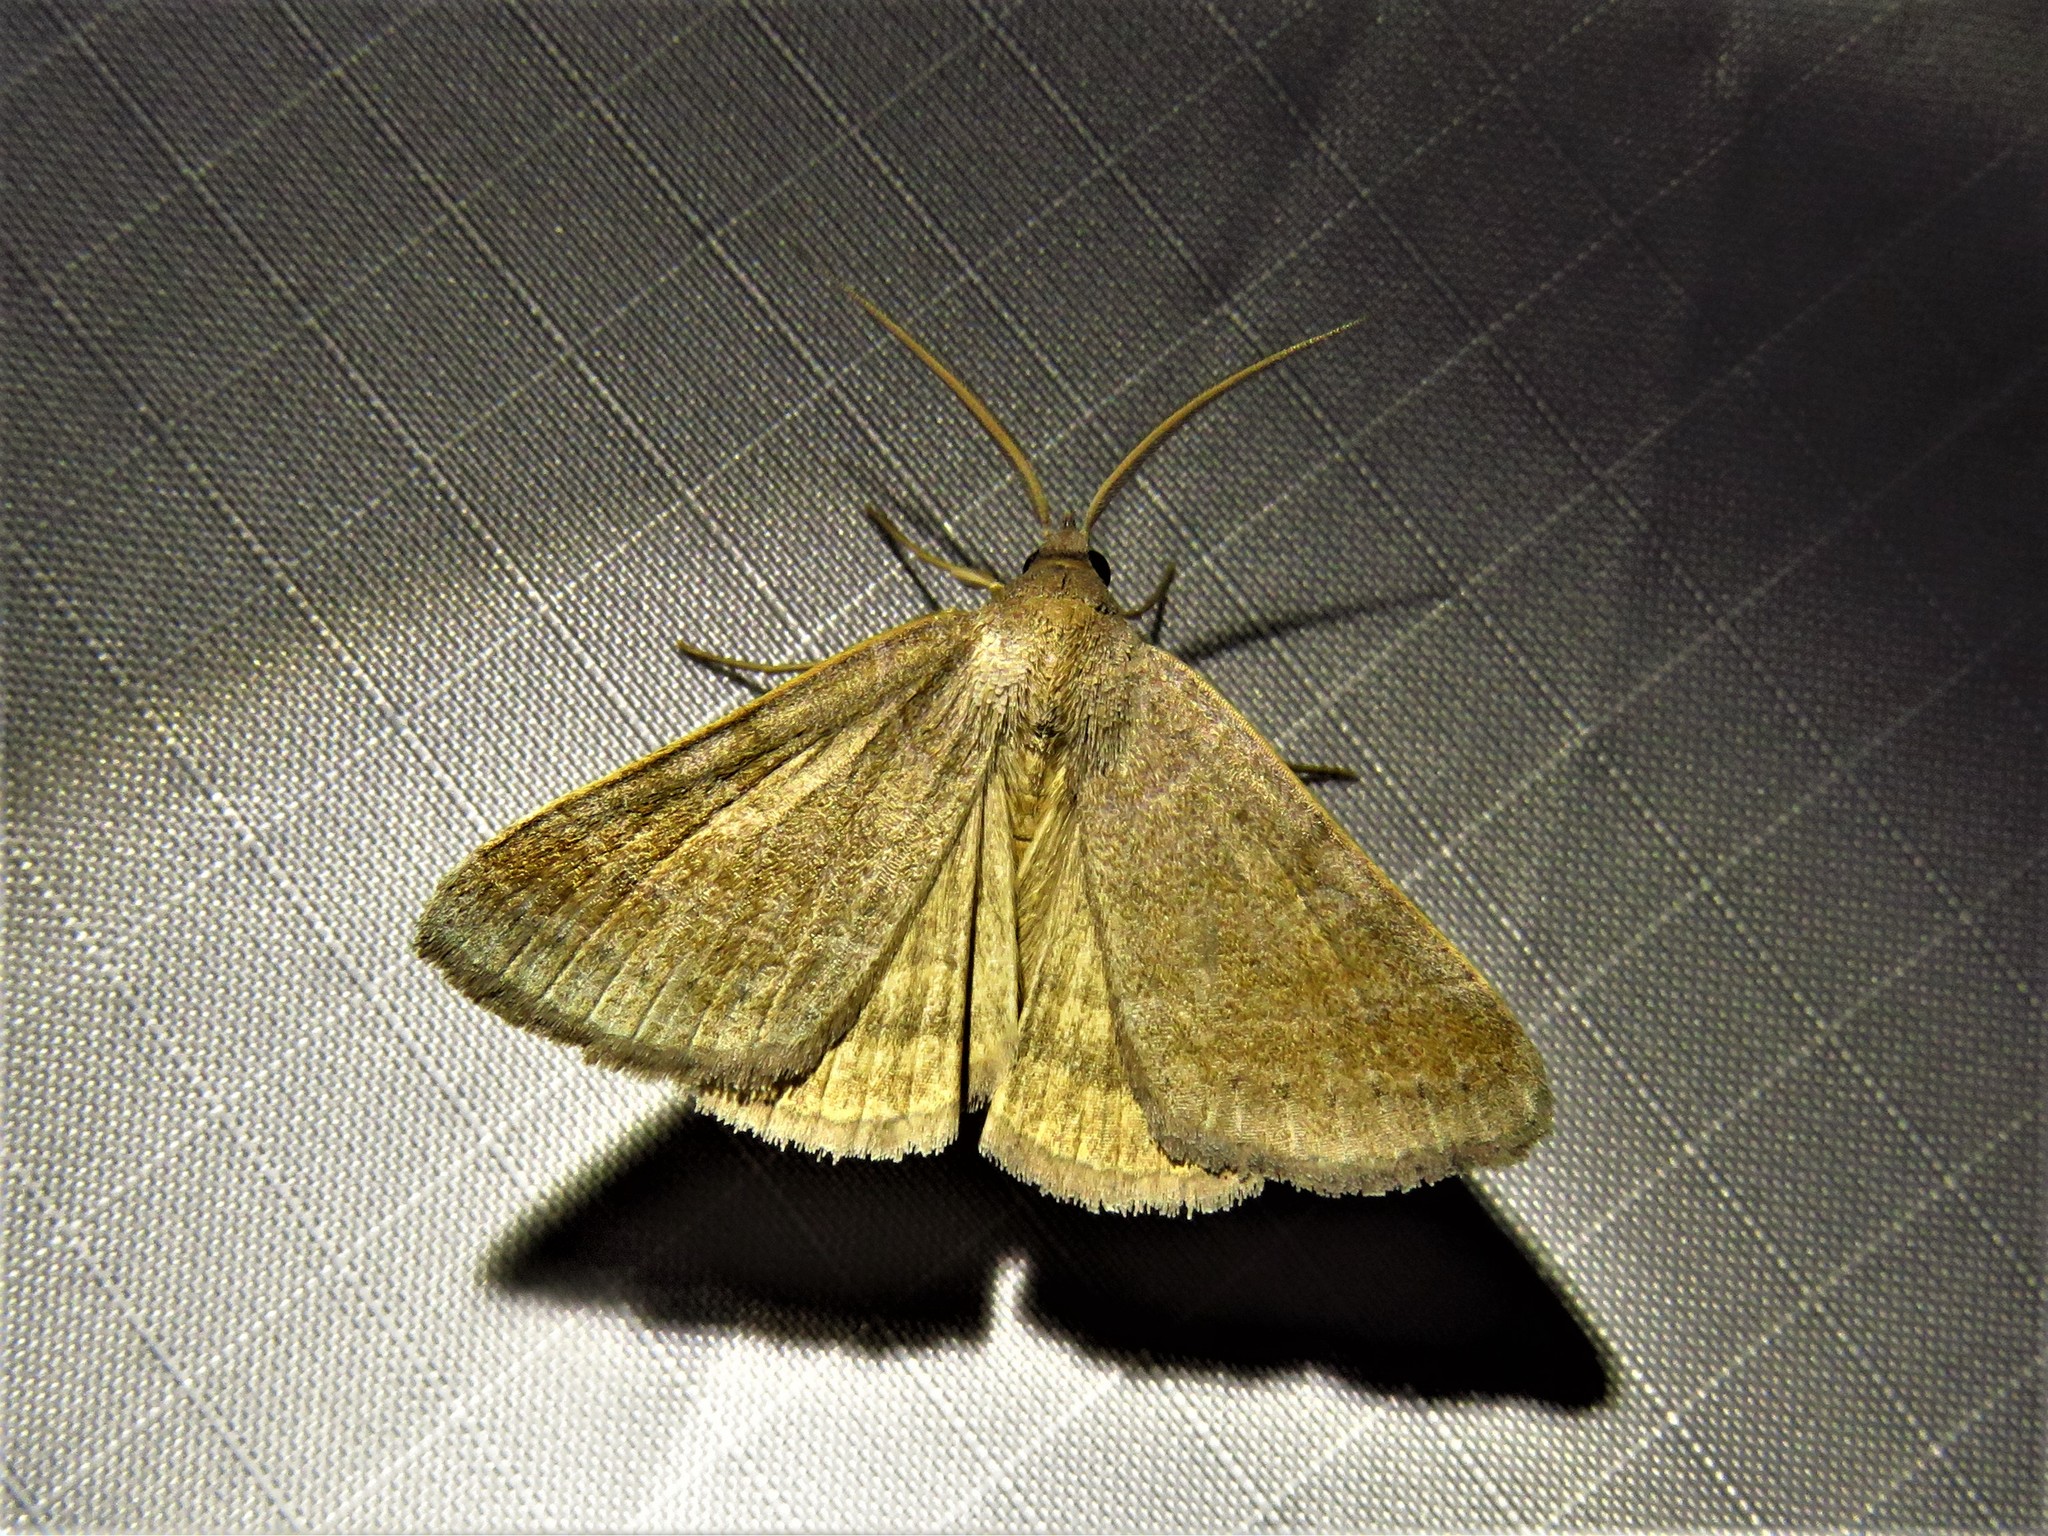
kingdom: Animalia
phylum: Arthropoda
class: Insecta
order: Lepidoptera
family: Erebidae
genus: Caenurgia
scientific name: Caenurgia chloropha
